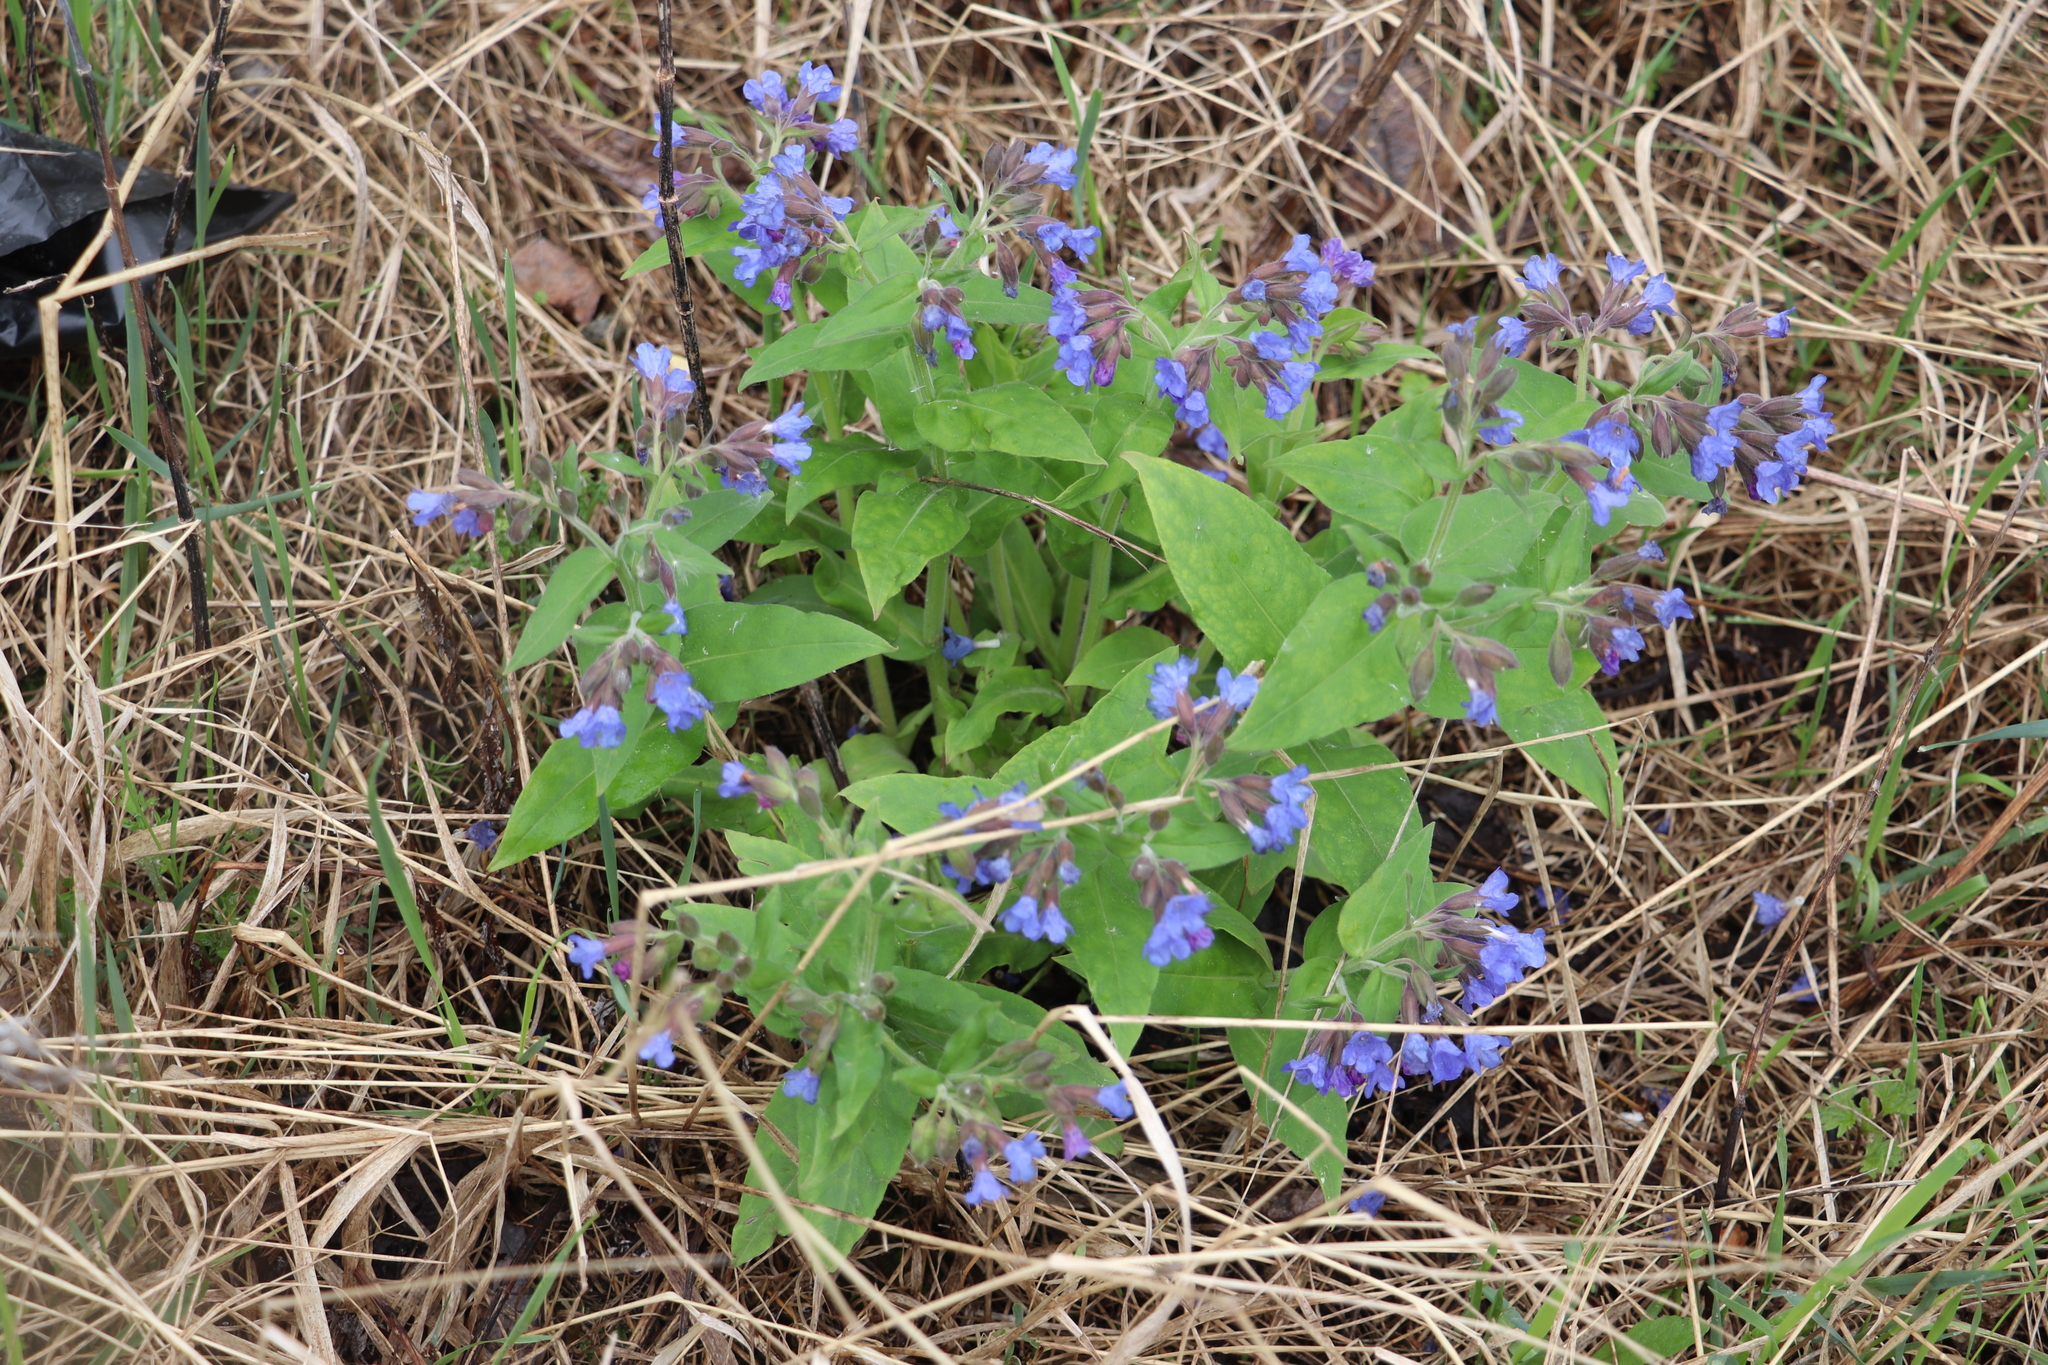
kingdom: Plantae
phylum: Tracheophyta
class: Magnoliopsida
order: Boraginales
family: Boraginaceae
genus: Pulmonaria
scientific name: Pulmonaria mollis
